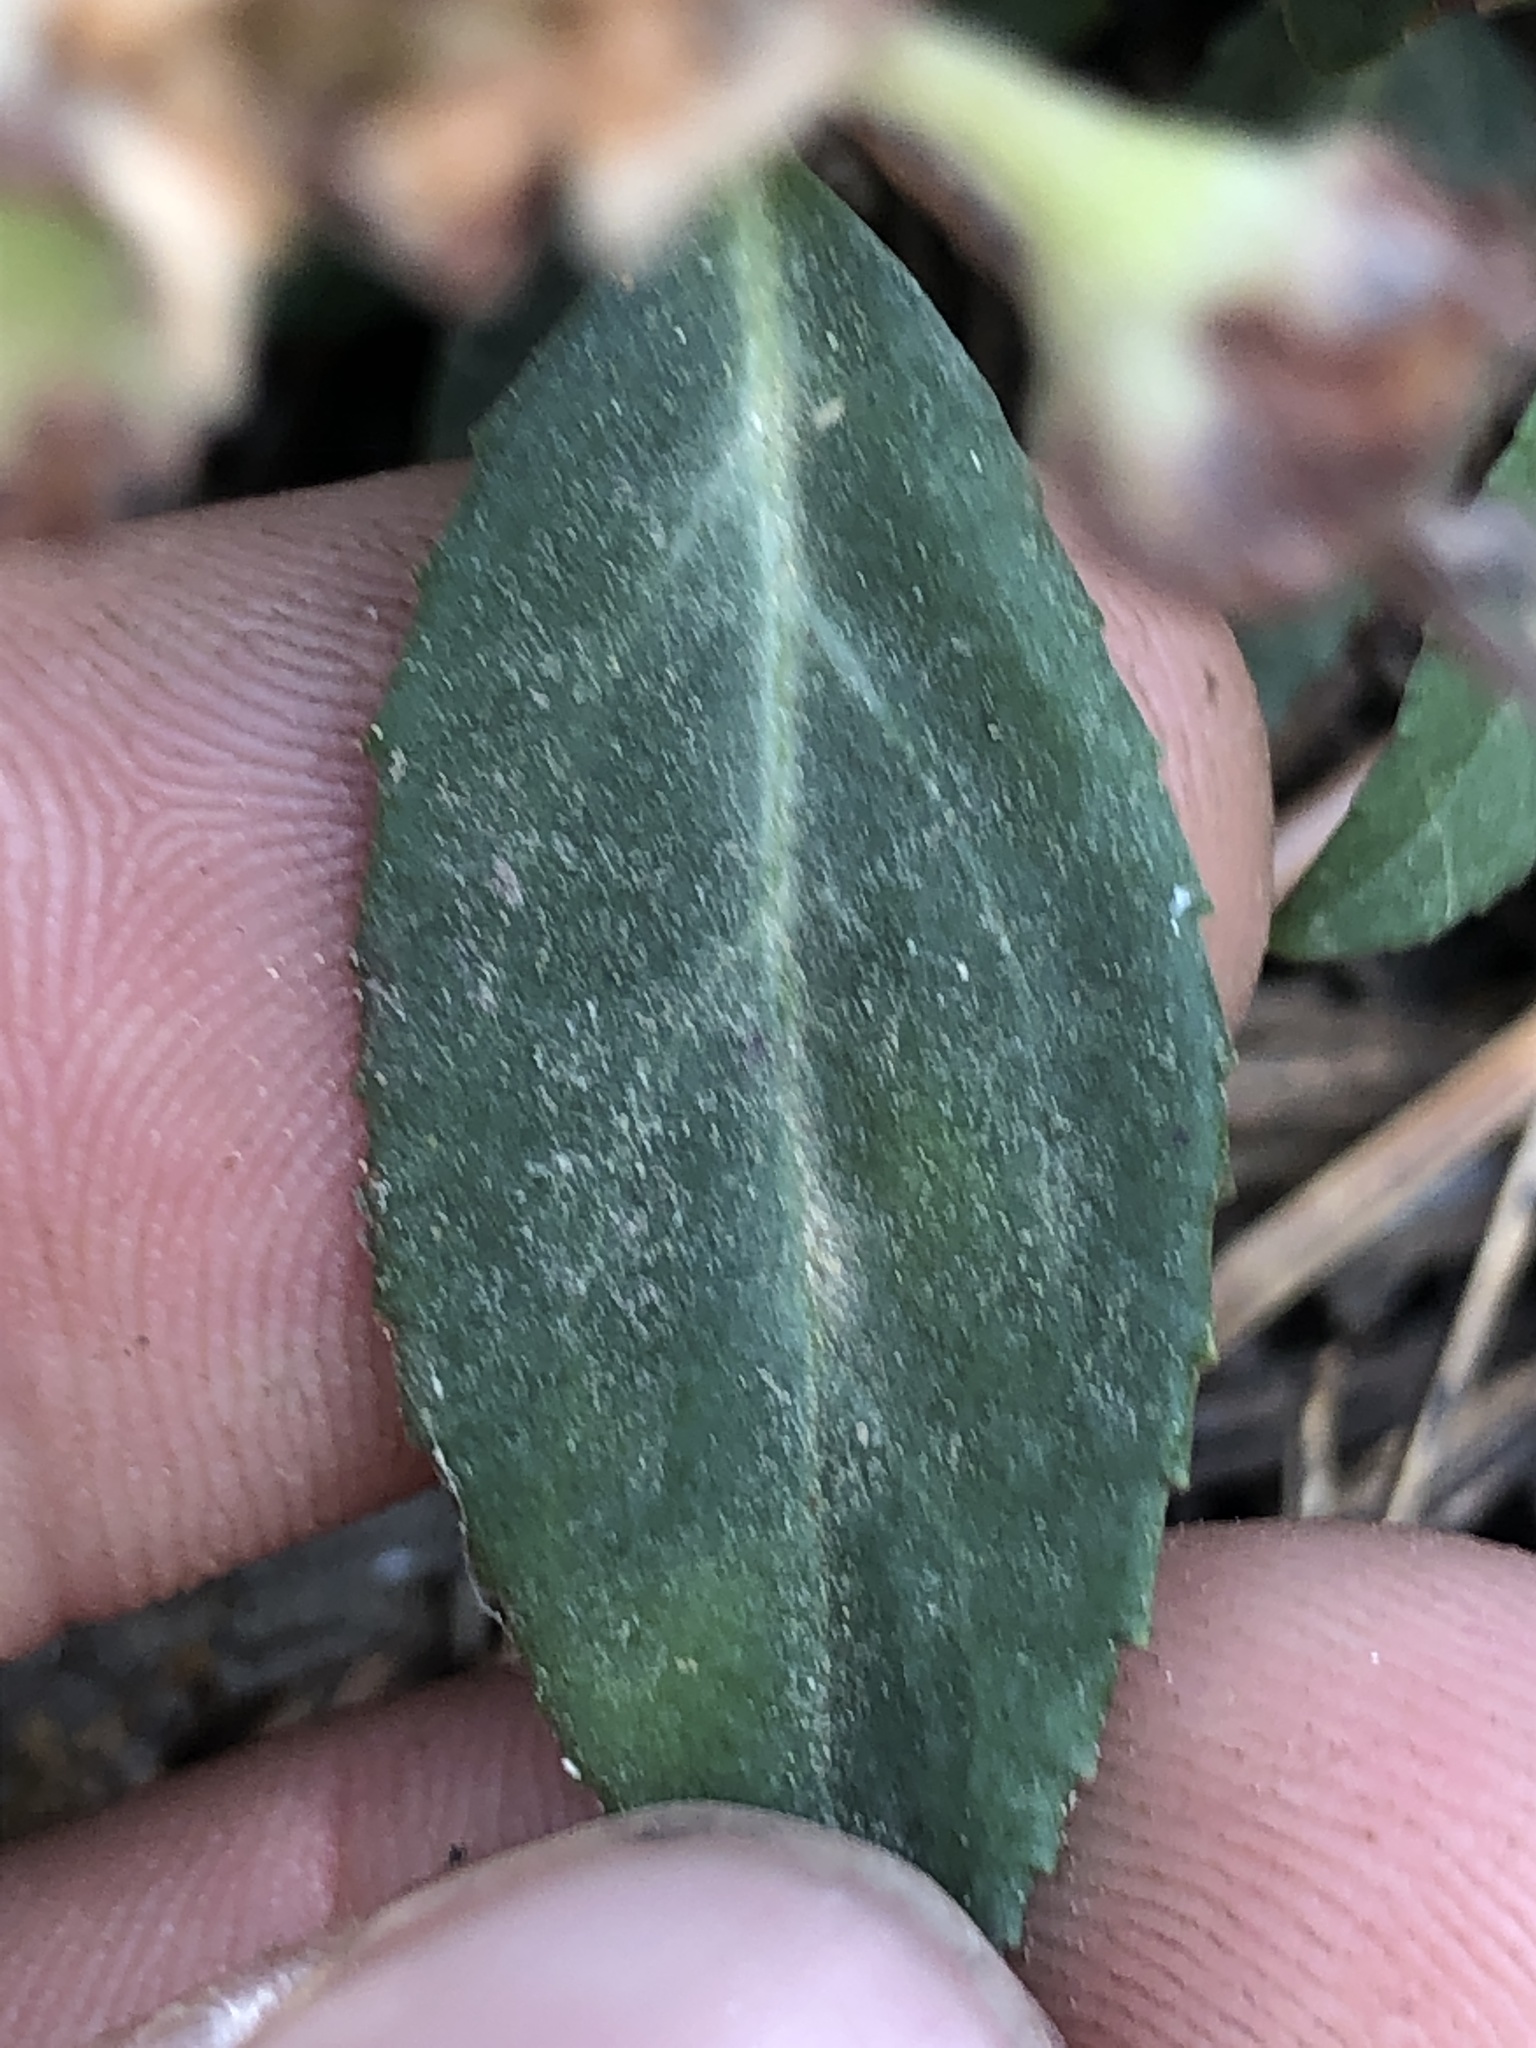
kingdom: Plantae
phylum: Tracheophyta
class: Magnoliopsida
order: Ericales
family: Ericaceae
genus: Chimaphila
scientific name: Chimaphila menziesii
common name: Menzies' pipsissewa
